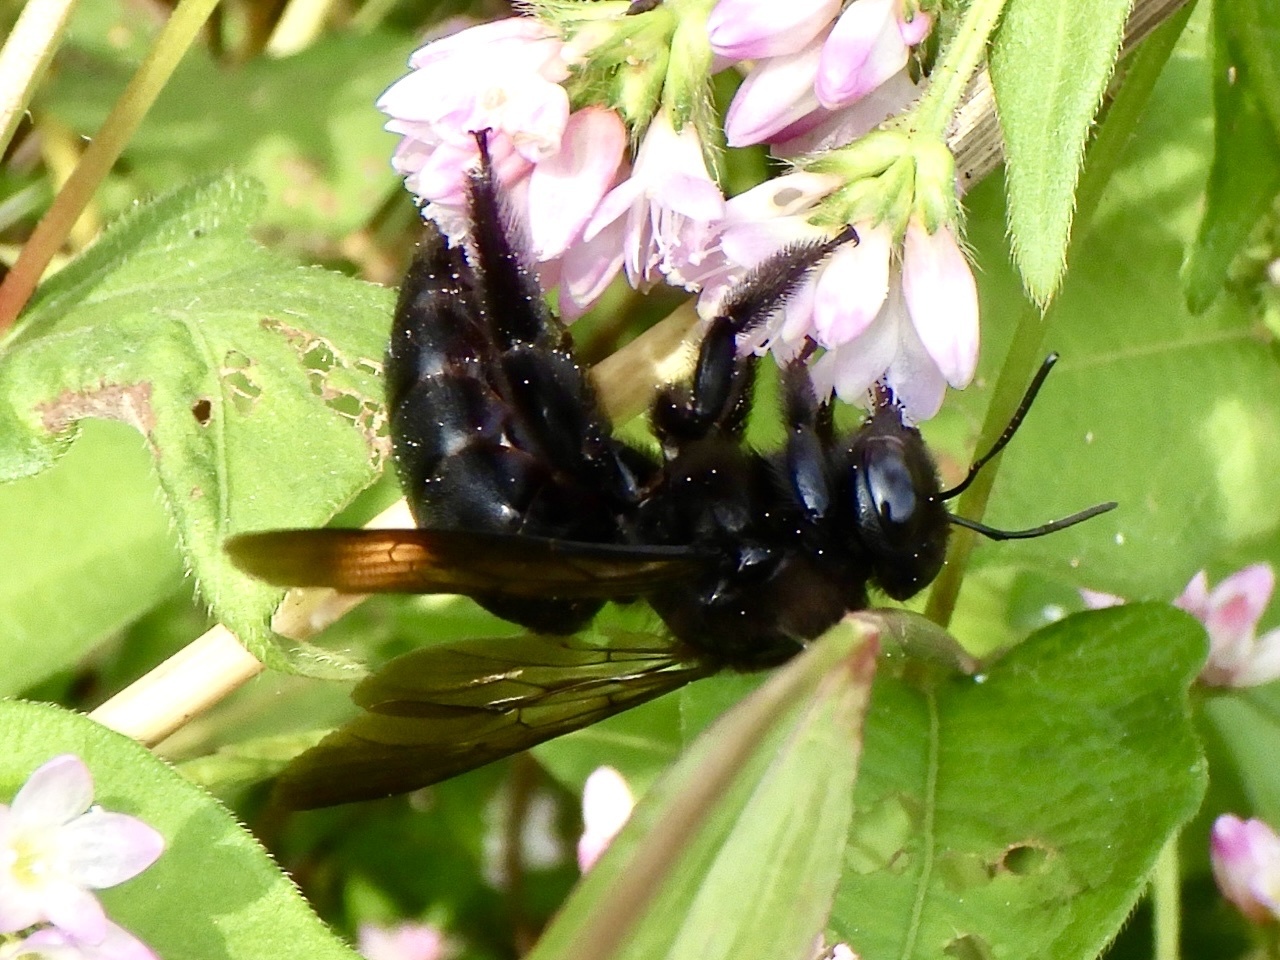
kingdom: Animalia
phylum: Arthropoda
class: Insecta
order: Hymenoptera
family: Apidae
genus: Xylocopa
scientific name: Xylocopa tranquebarorum
